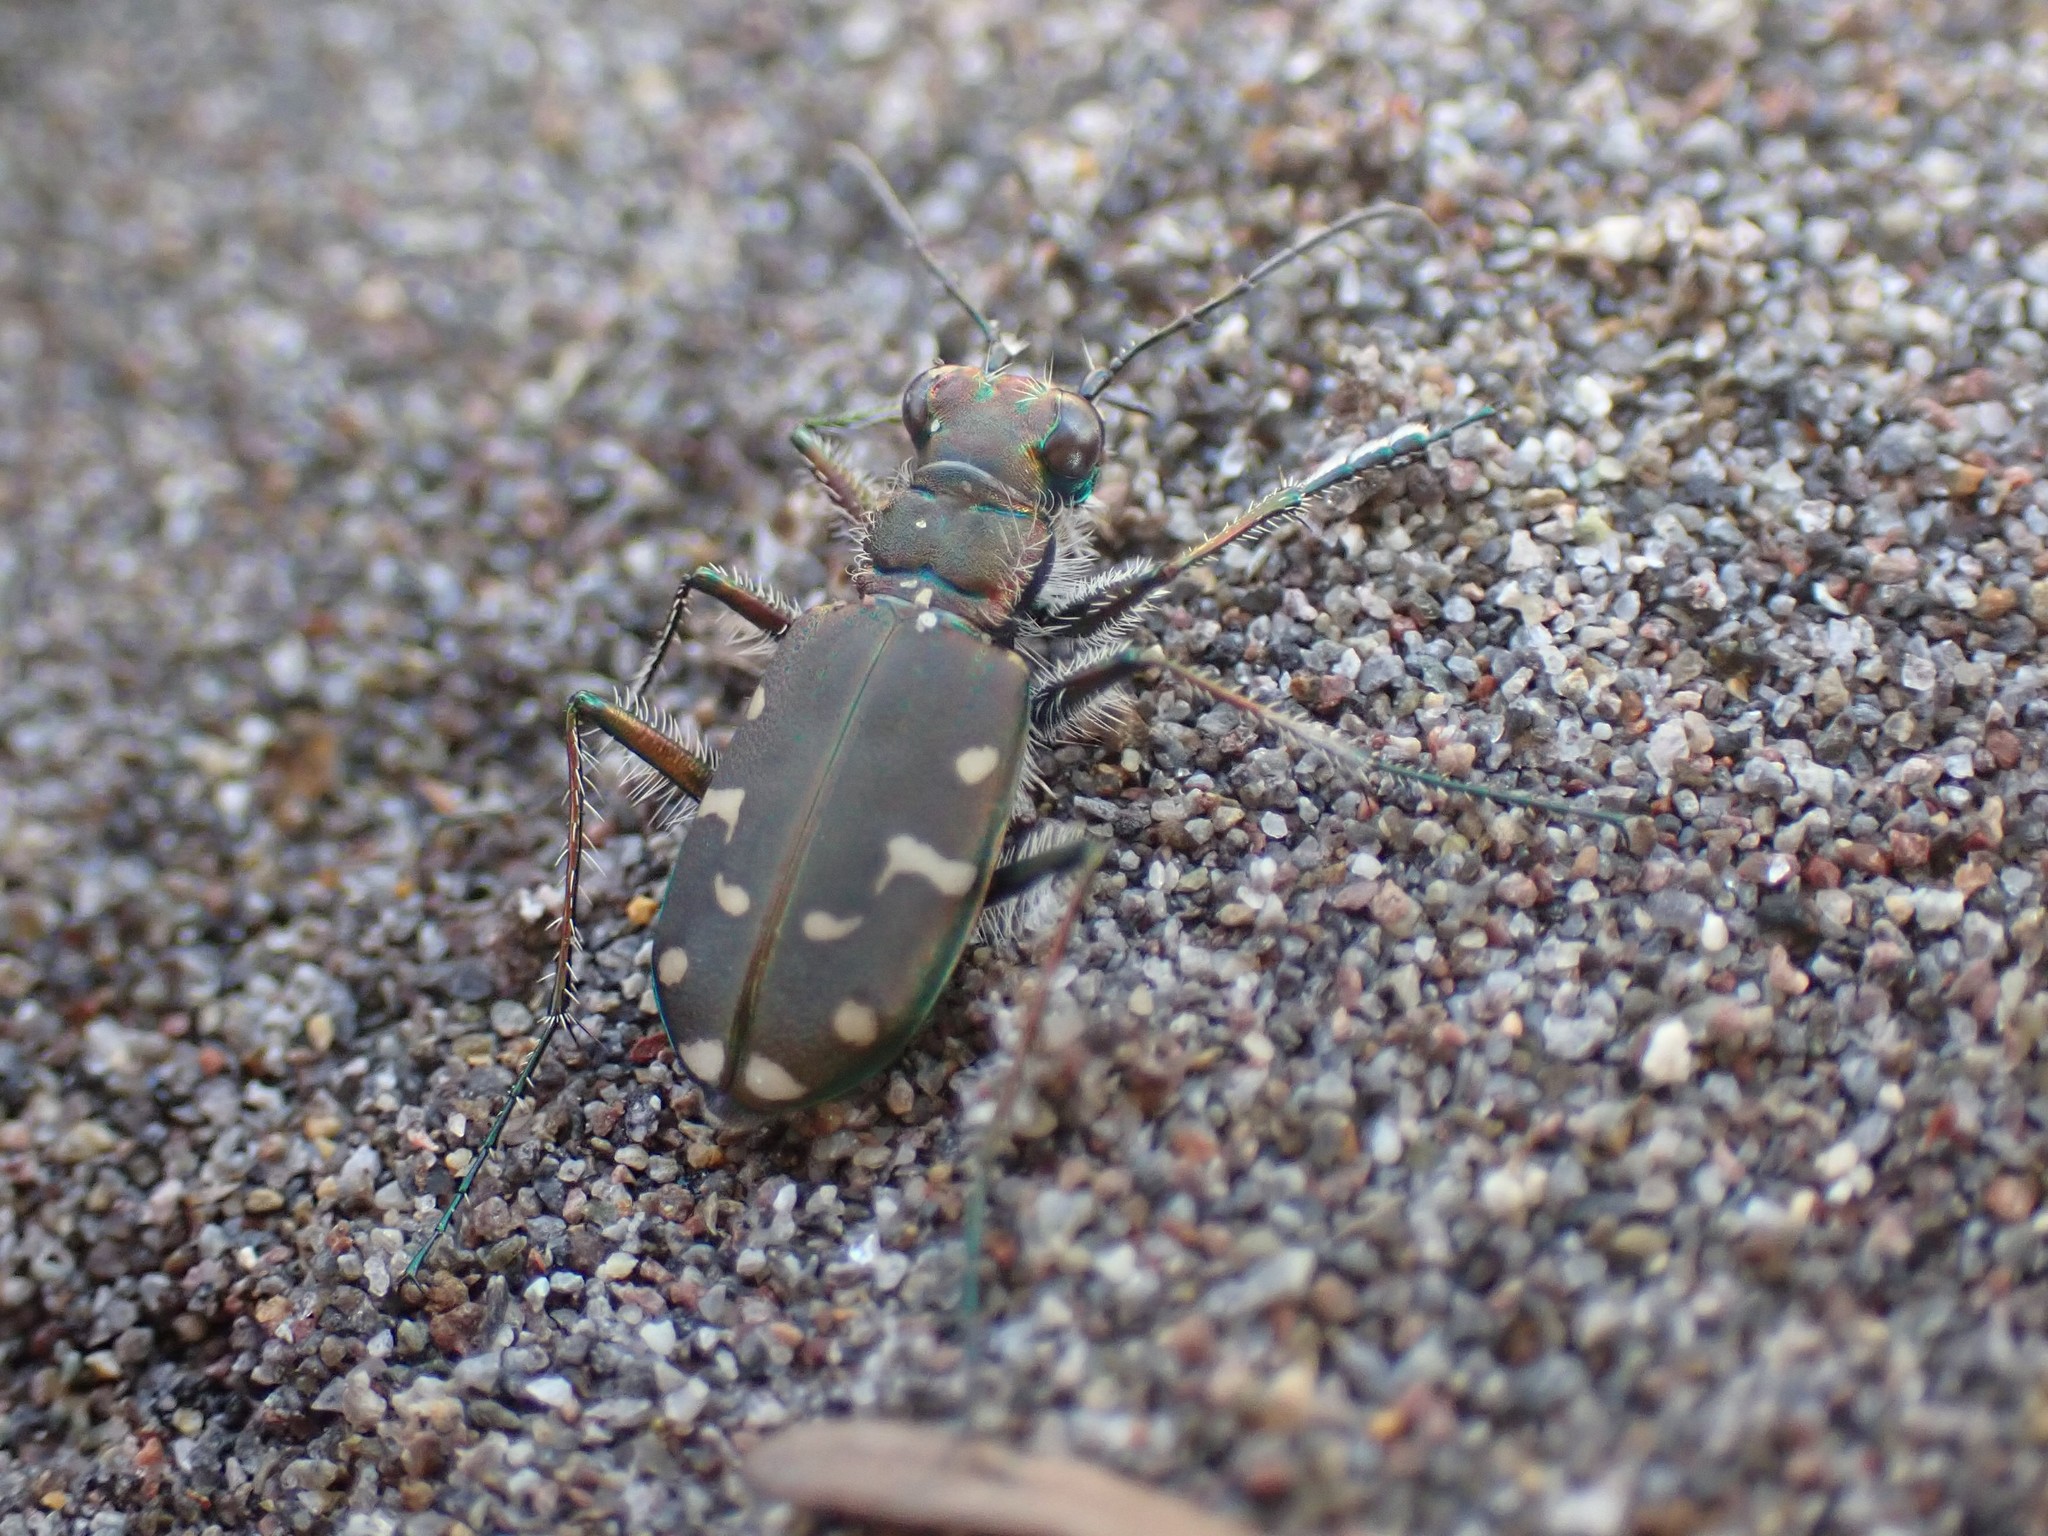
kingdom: Animalia
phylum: Arthropoda
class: Insecta
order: Coleoptera
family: Carabidae
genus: Cicindela
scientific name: Cicindela oregona
